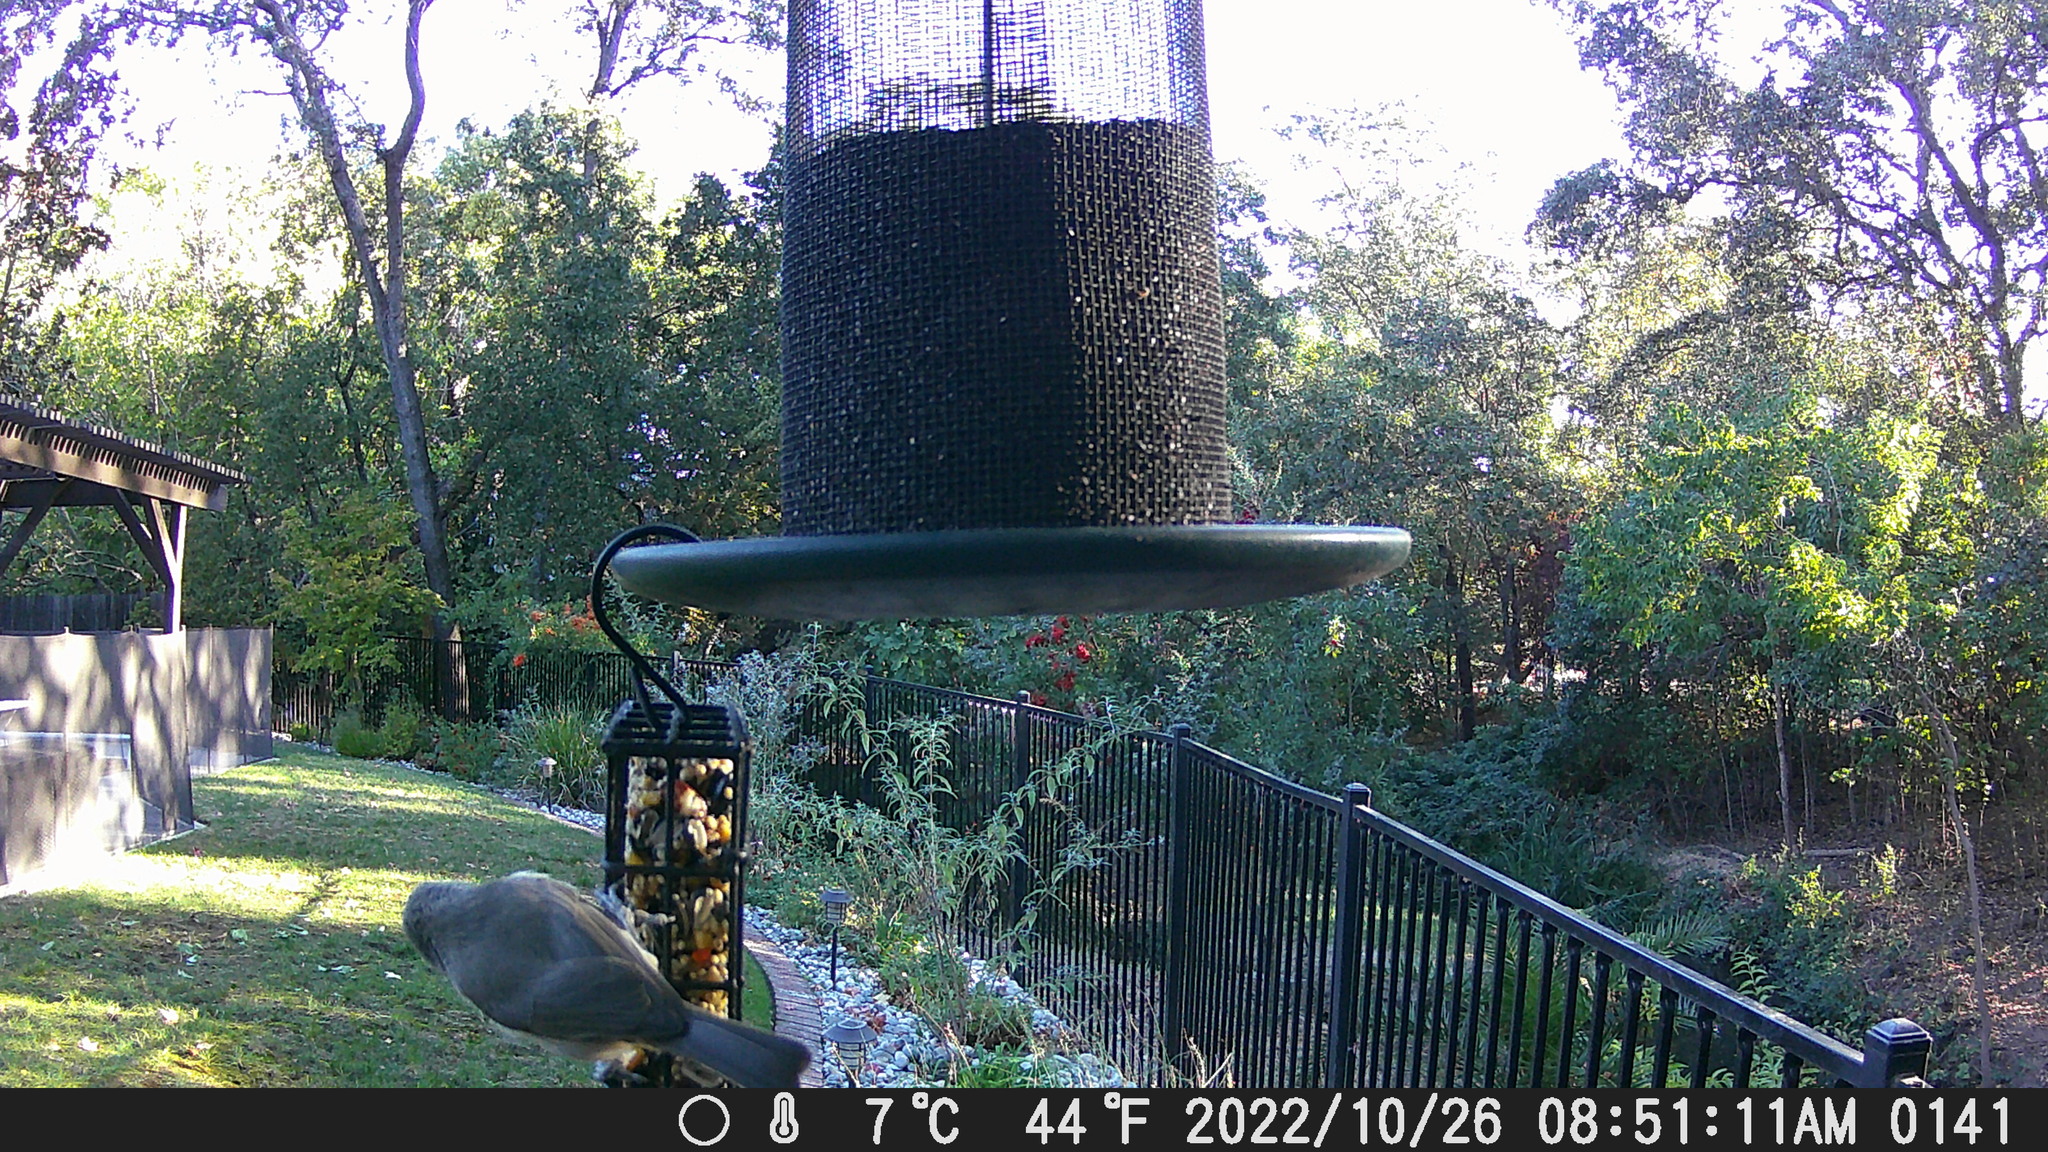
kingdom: Animalia
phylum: Chordata
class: Aves
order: Passeriformes
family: Paridae
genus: Baeolophus
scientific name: Baeolophus inornatus
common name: Oak titmouse
